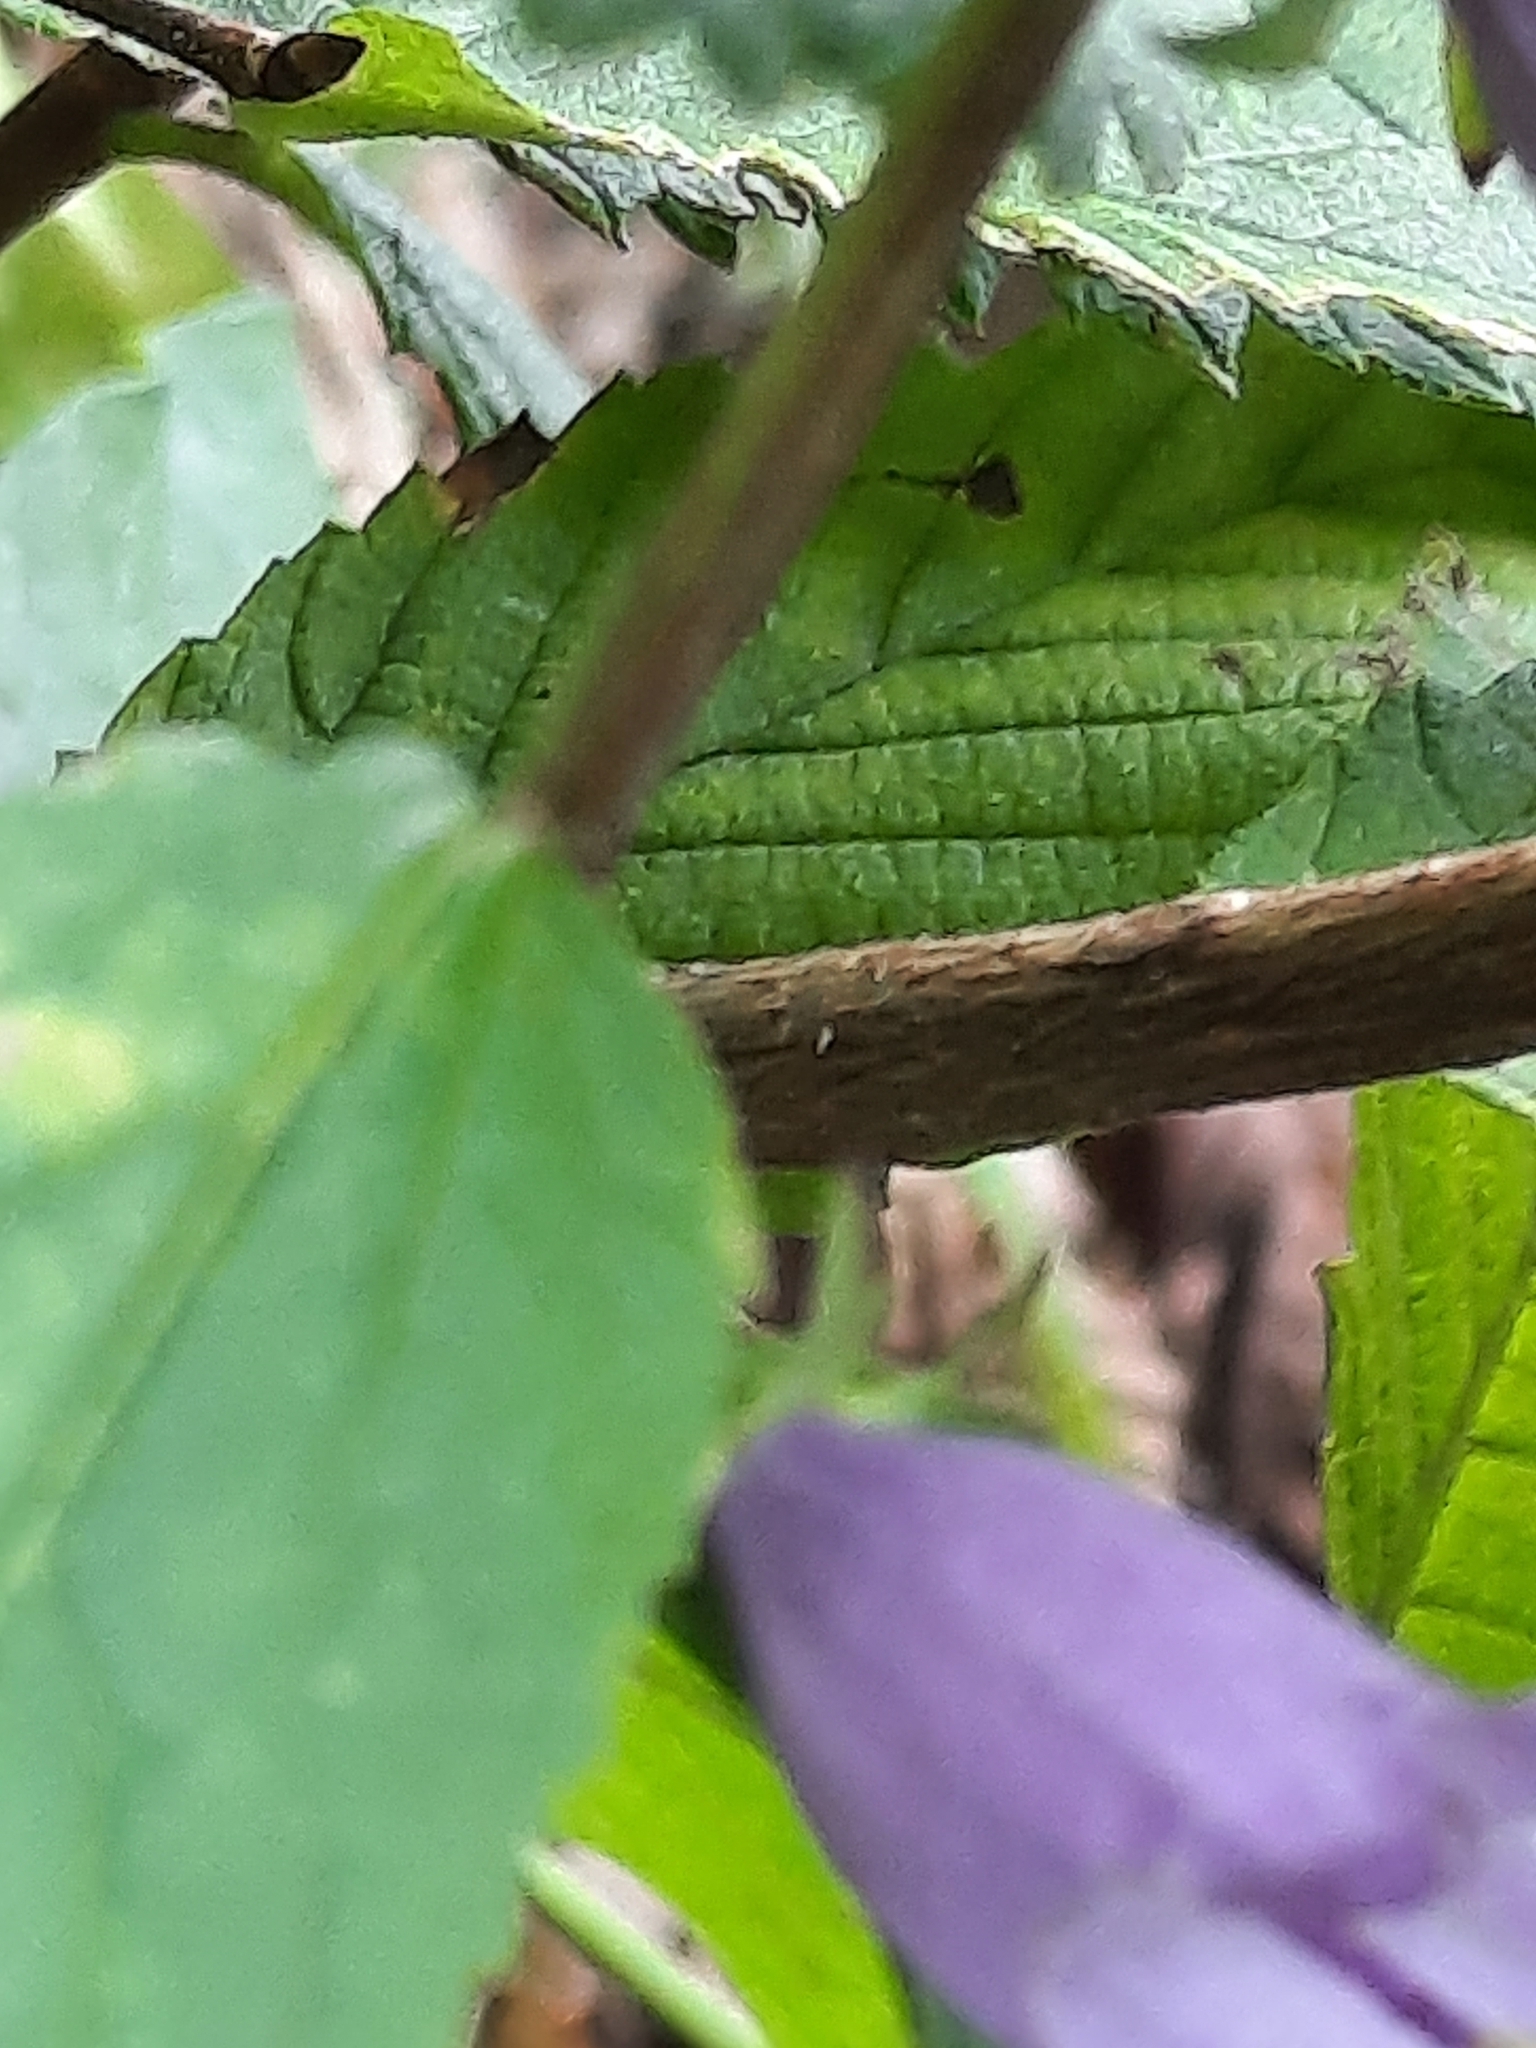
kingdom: Plantae
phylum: Tracheophyta
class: Magnoliopsida
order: Asterales
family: Campanulaceae
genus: Campanula
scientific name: Campanula rapunculoides
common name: Creeping bellflower
